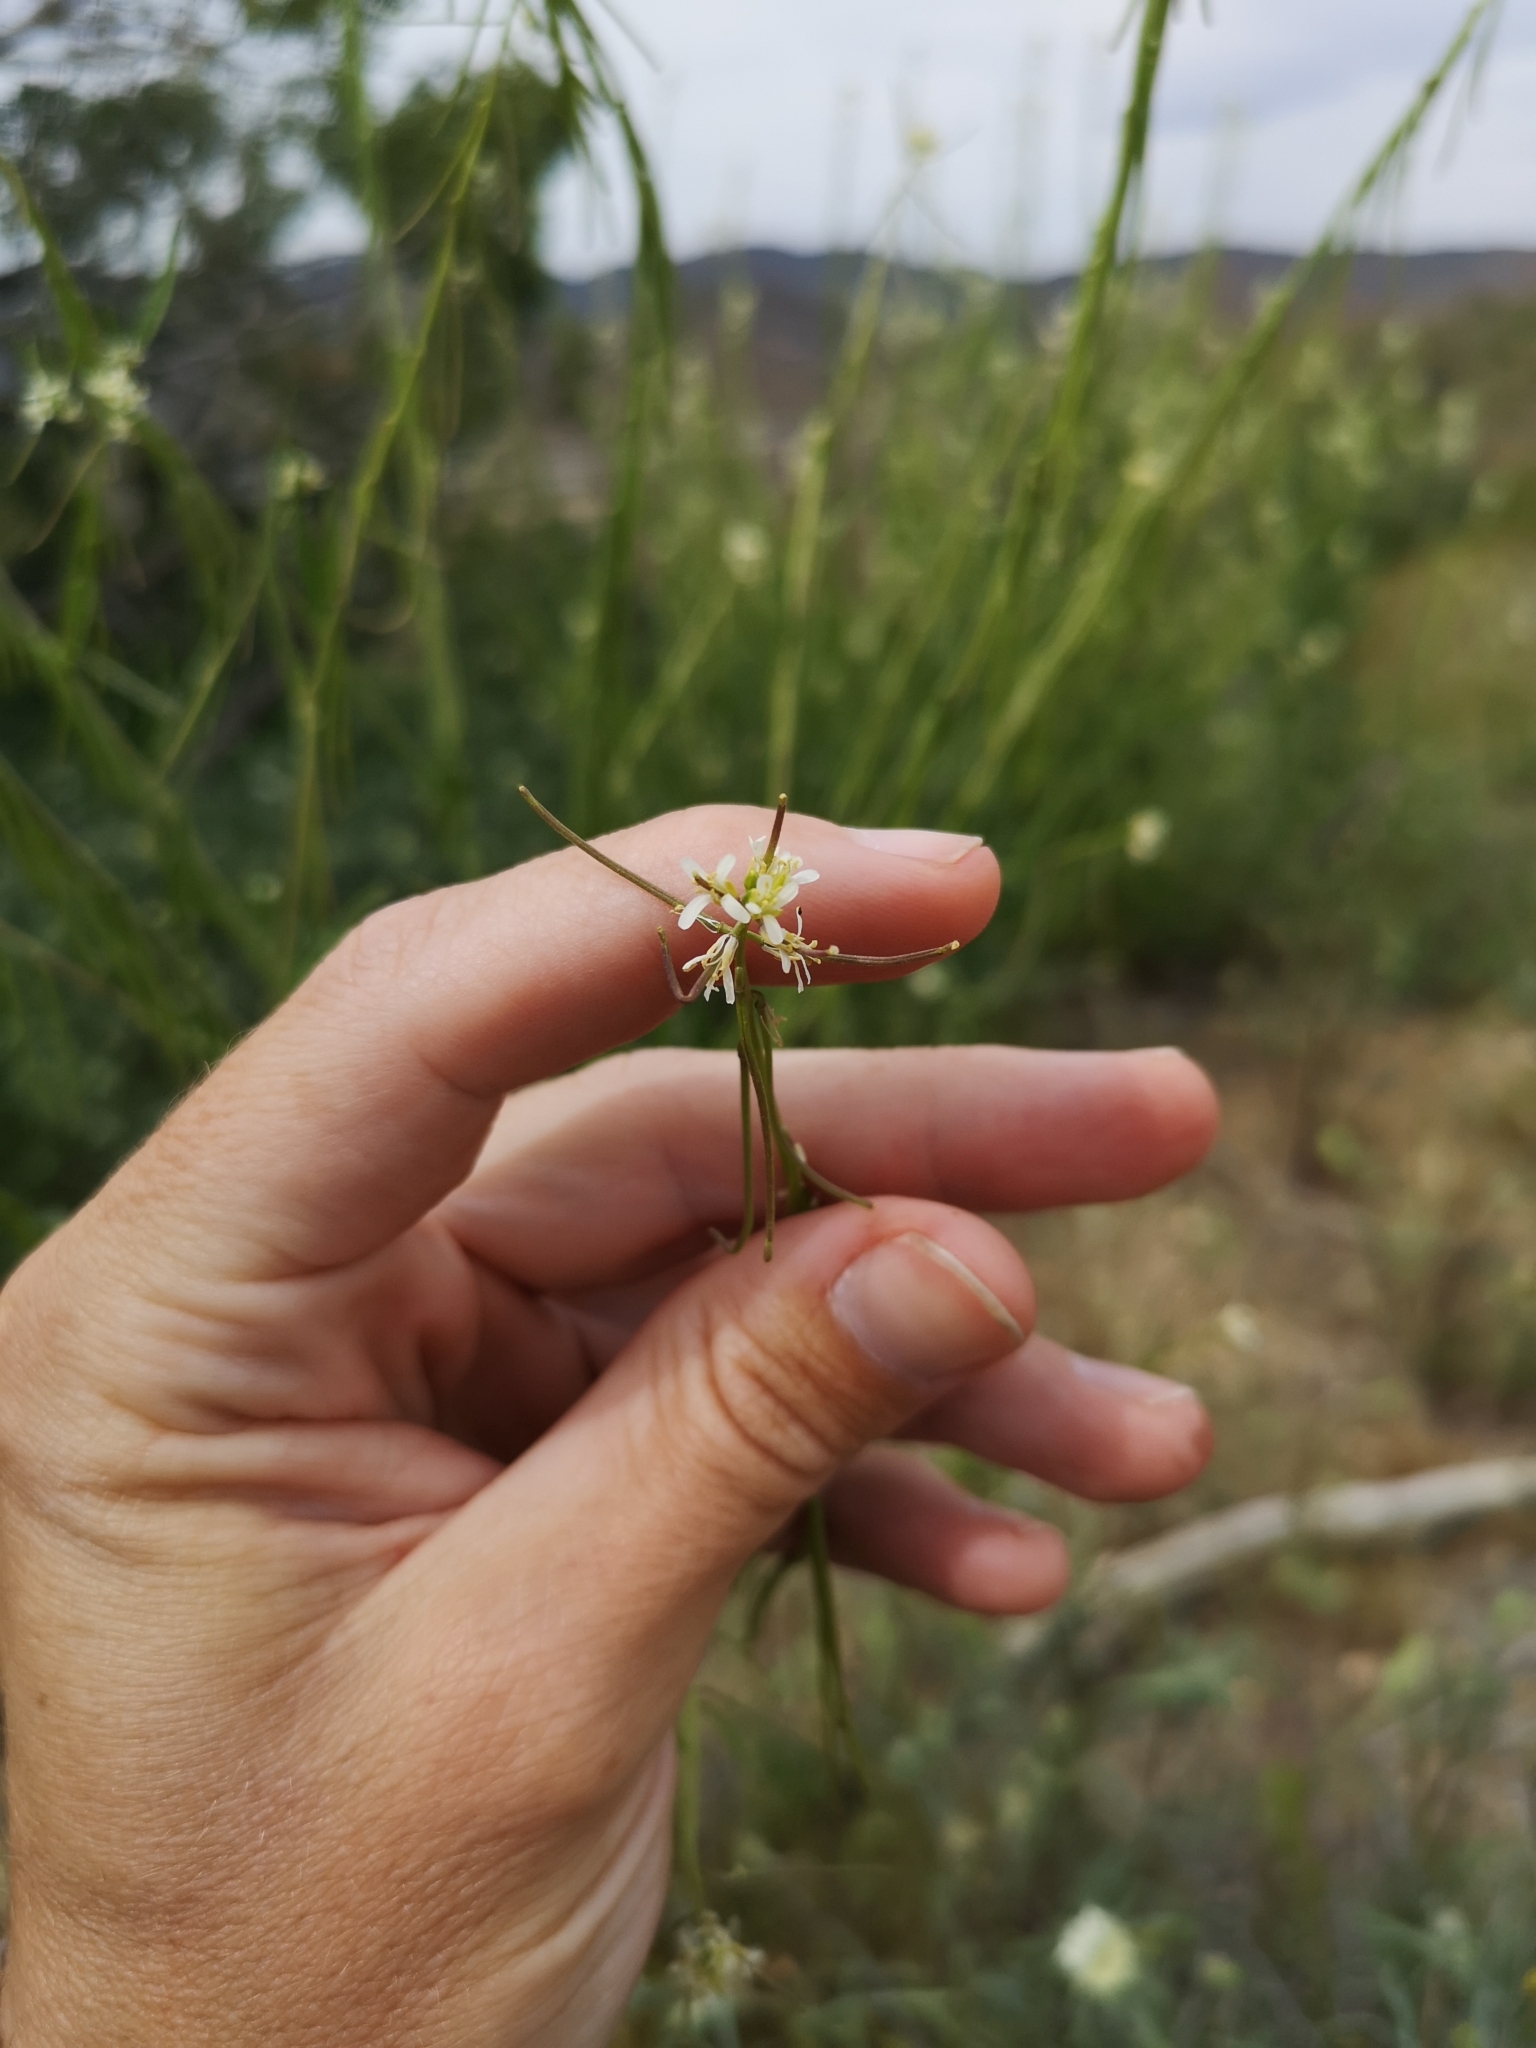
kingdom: Plantae
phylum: Tracheophyta
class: Magnoliopsida
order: Brassicales
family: Brassicaceae
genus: Streptanthus
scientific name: Streptanthus lasiophyllus
